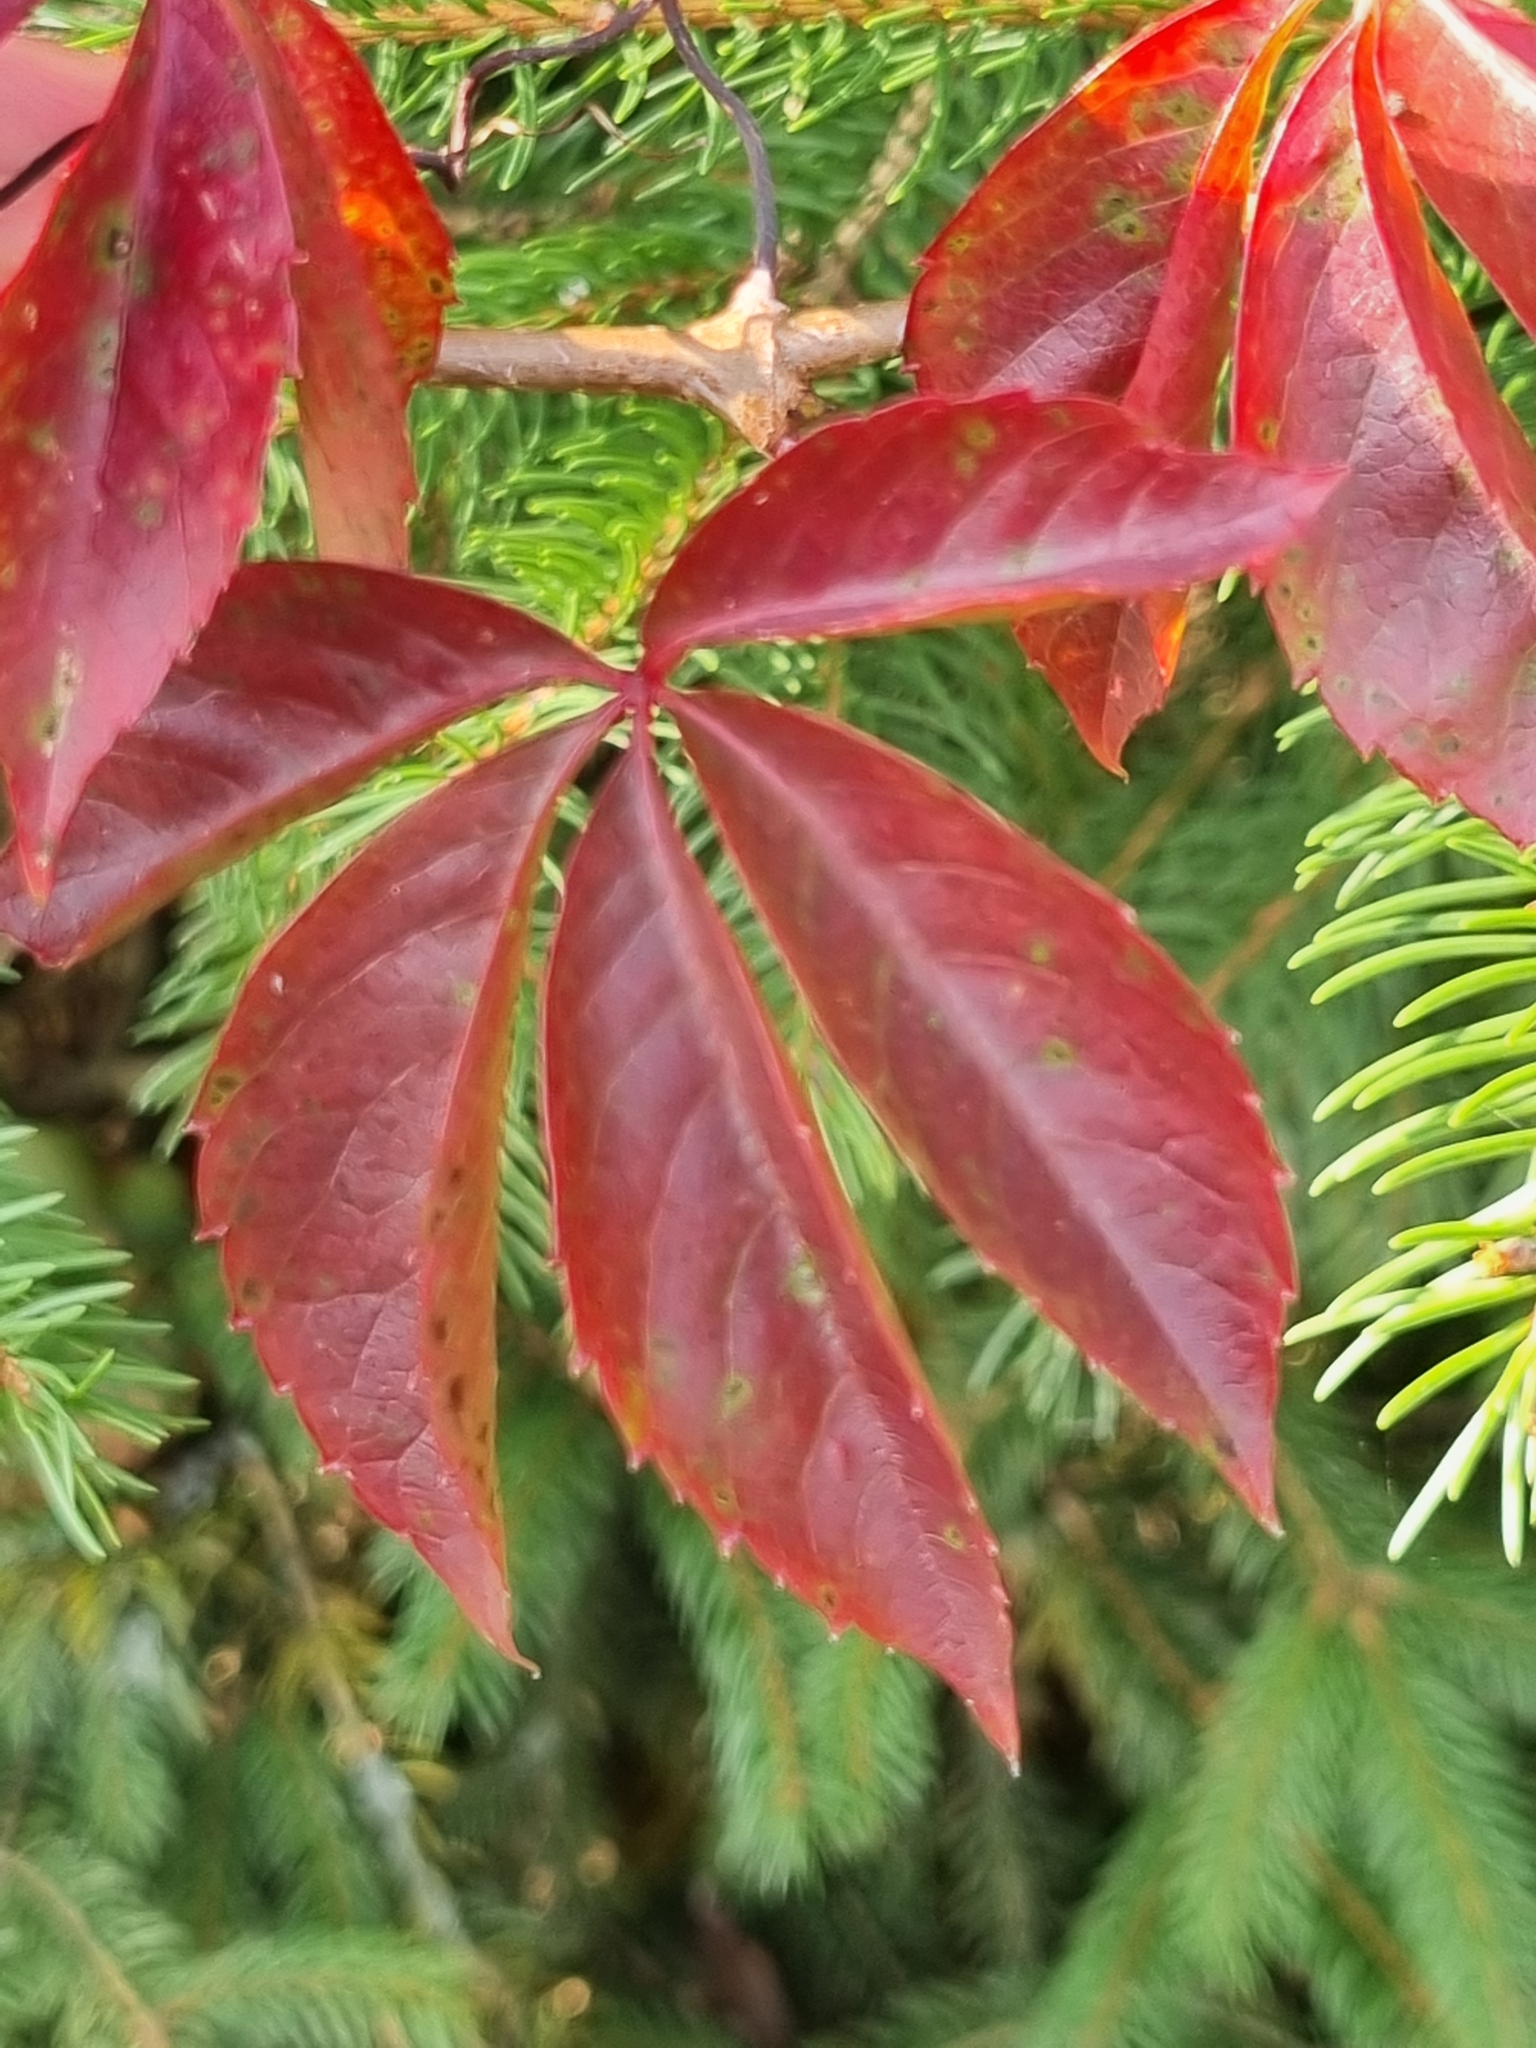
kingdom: Plantae
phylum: Tracheophyta
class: Magnoliopsida
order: Vitales
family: Vitaceae
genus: Parthenocissus
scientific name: Parthenocissus quinquefolia
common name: Virginia-creeper
